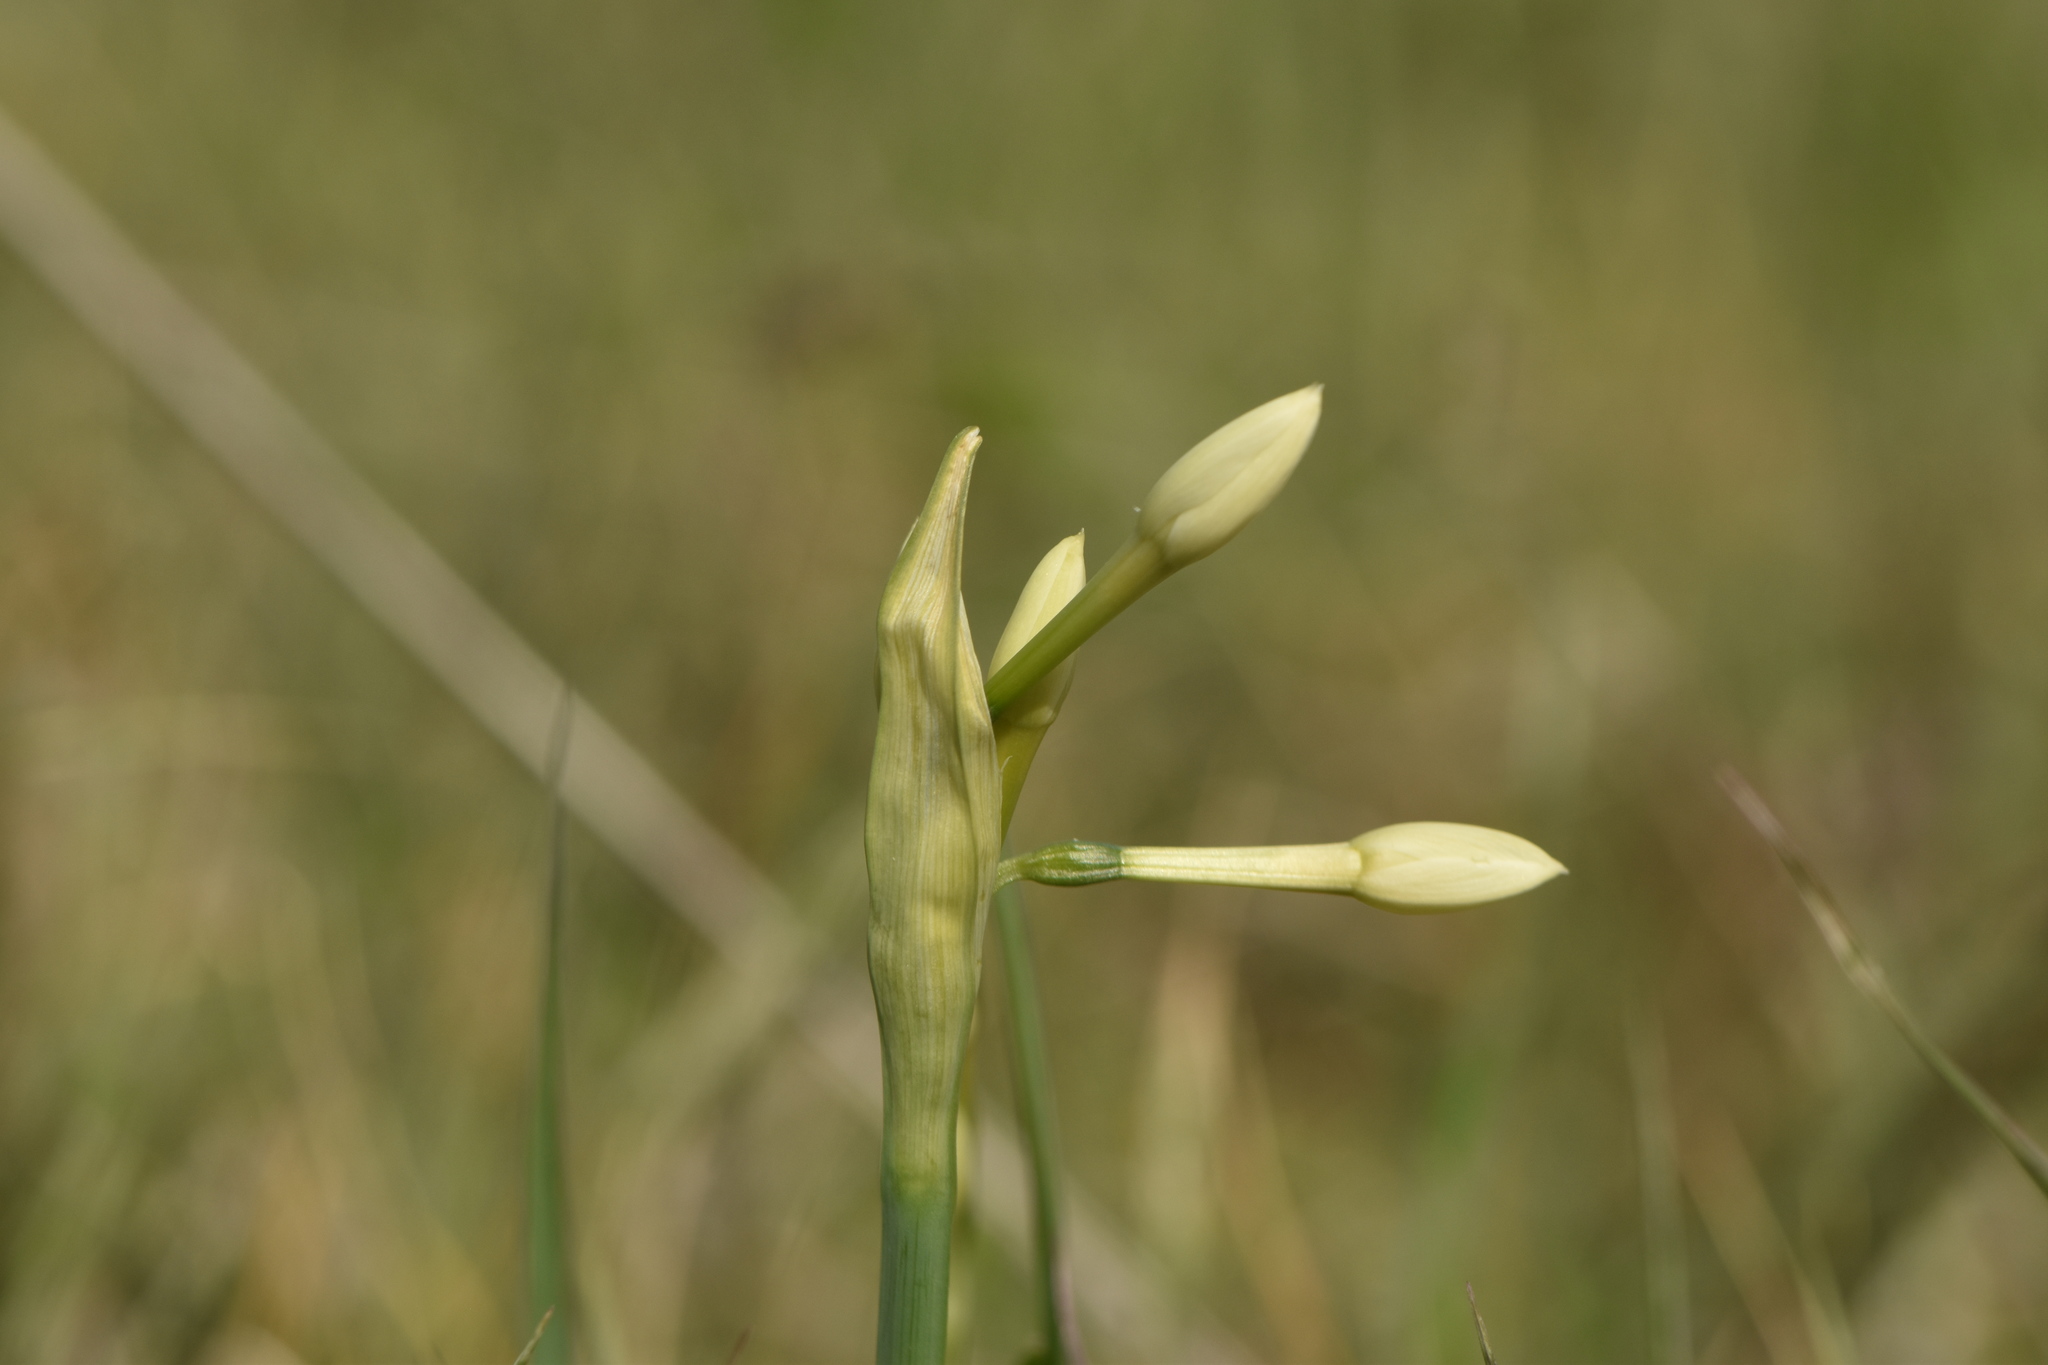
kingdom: Plantae
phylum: Tracheophyta
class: Liliopsida
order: Asparagales
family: Amaryllidaceae
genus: Narcissus
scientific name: Narcissus papyraceus
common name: Paper-white daffodil
